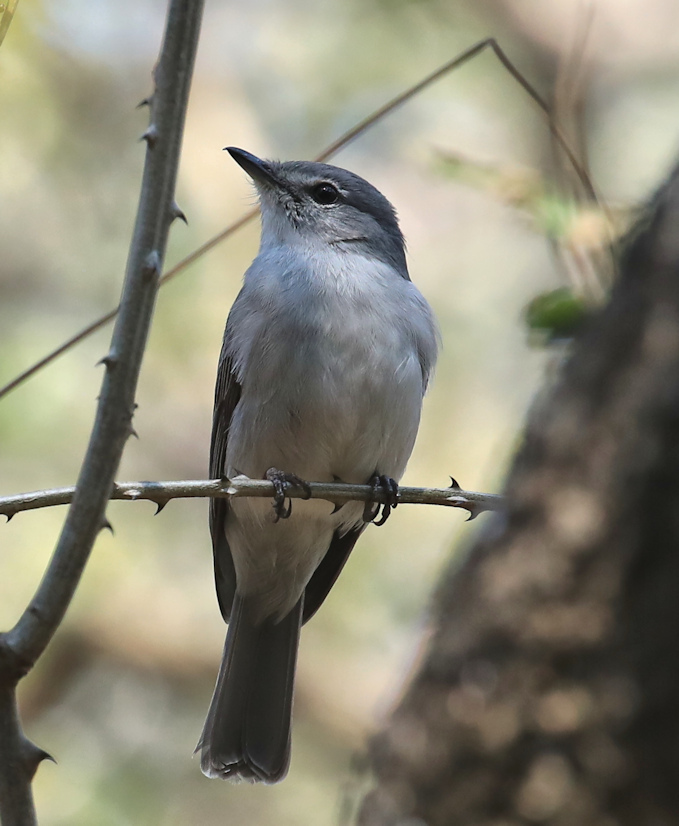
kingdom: Animalia
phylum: Chordata
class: Aves
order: Passeriformes
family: Muscicapidae
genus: Muscicapa
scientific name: Muscicapa caerulescens
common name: Ashy flycatcher
